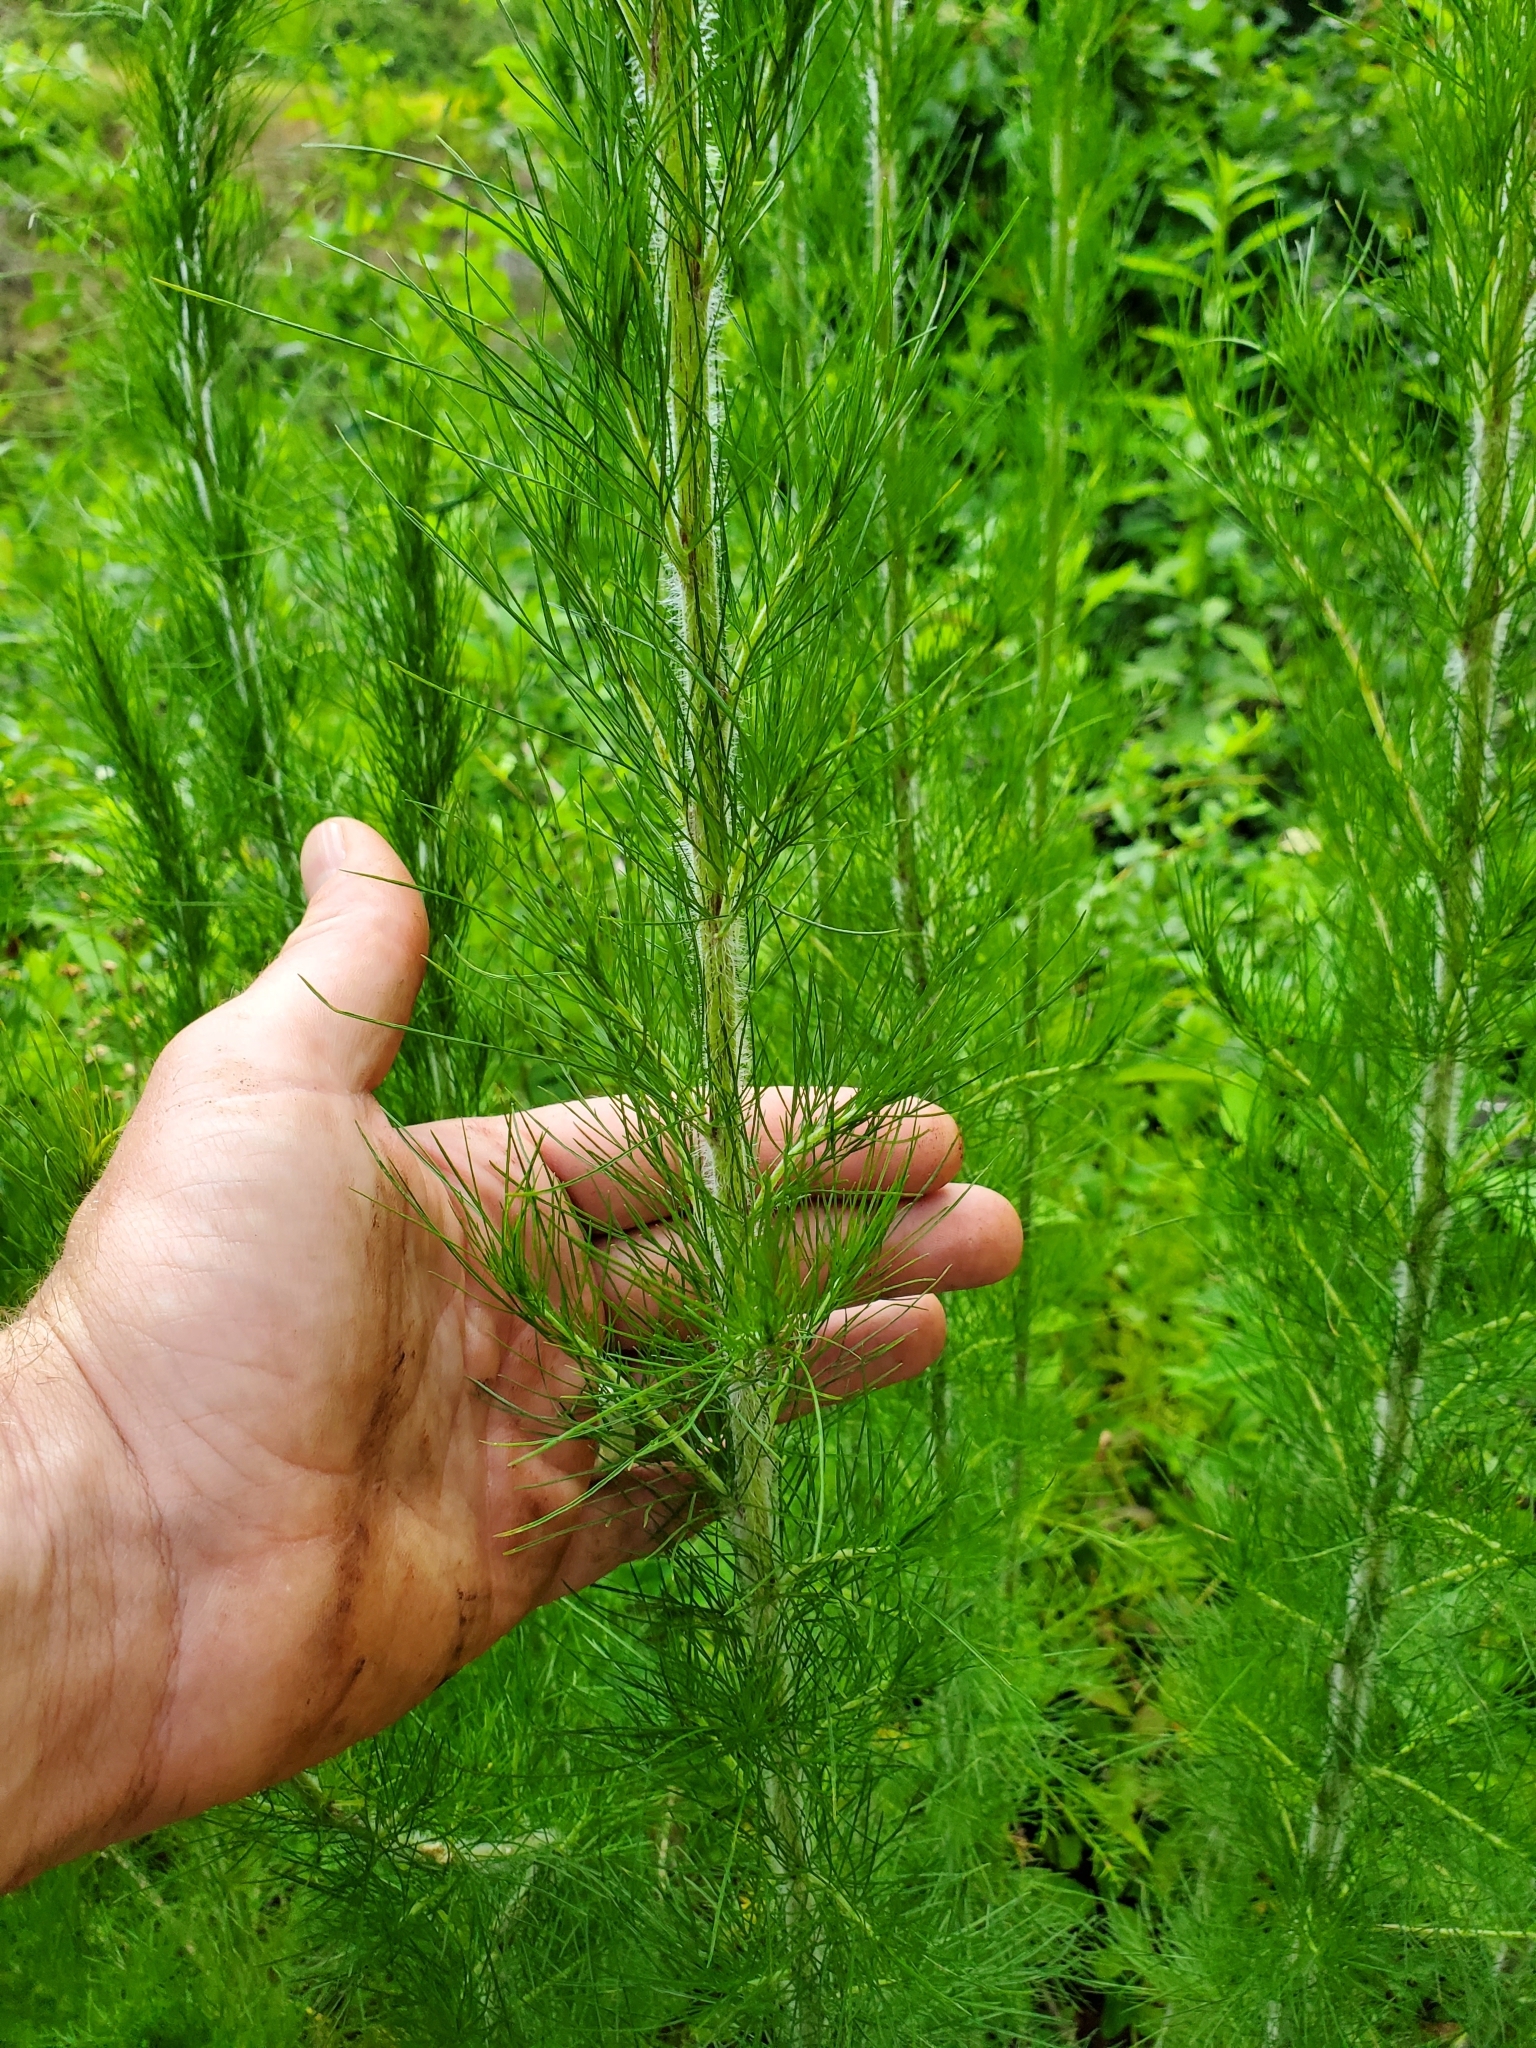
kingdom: Plantae
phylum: Tracheophyta
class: Magnoliopsida
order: Asterales
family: Asteraceae
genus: Eupatorium
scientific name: Eupatorium capillifolium
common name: Dog-fennel
